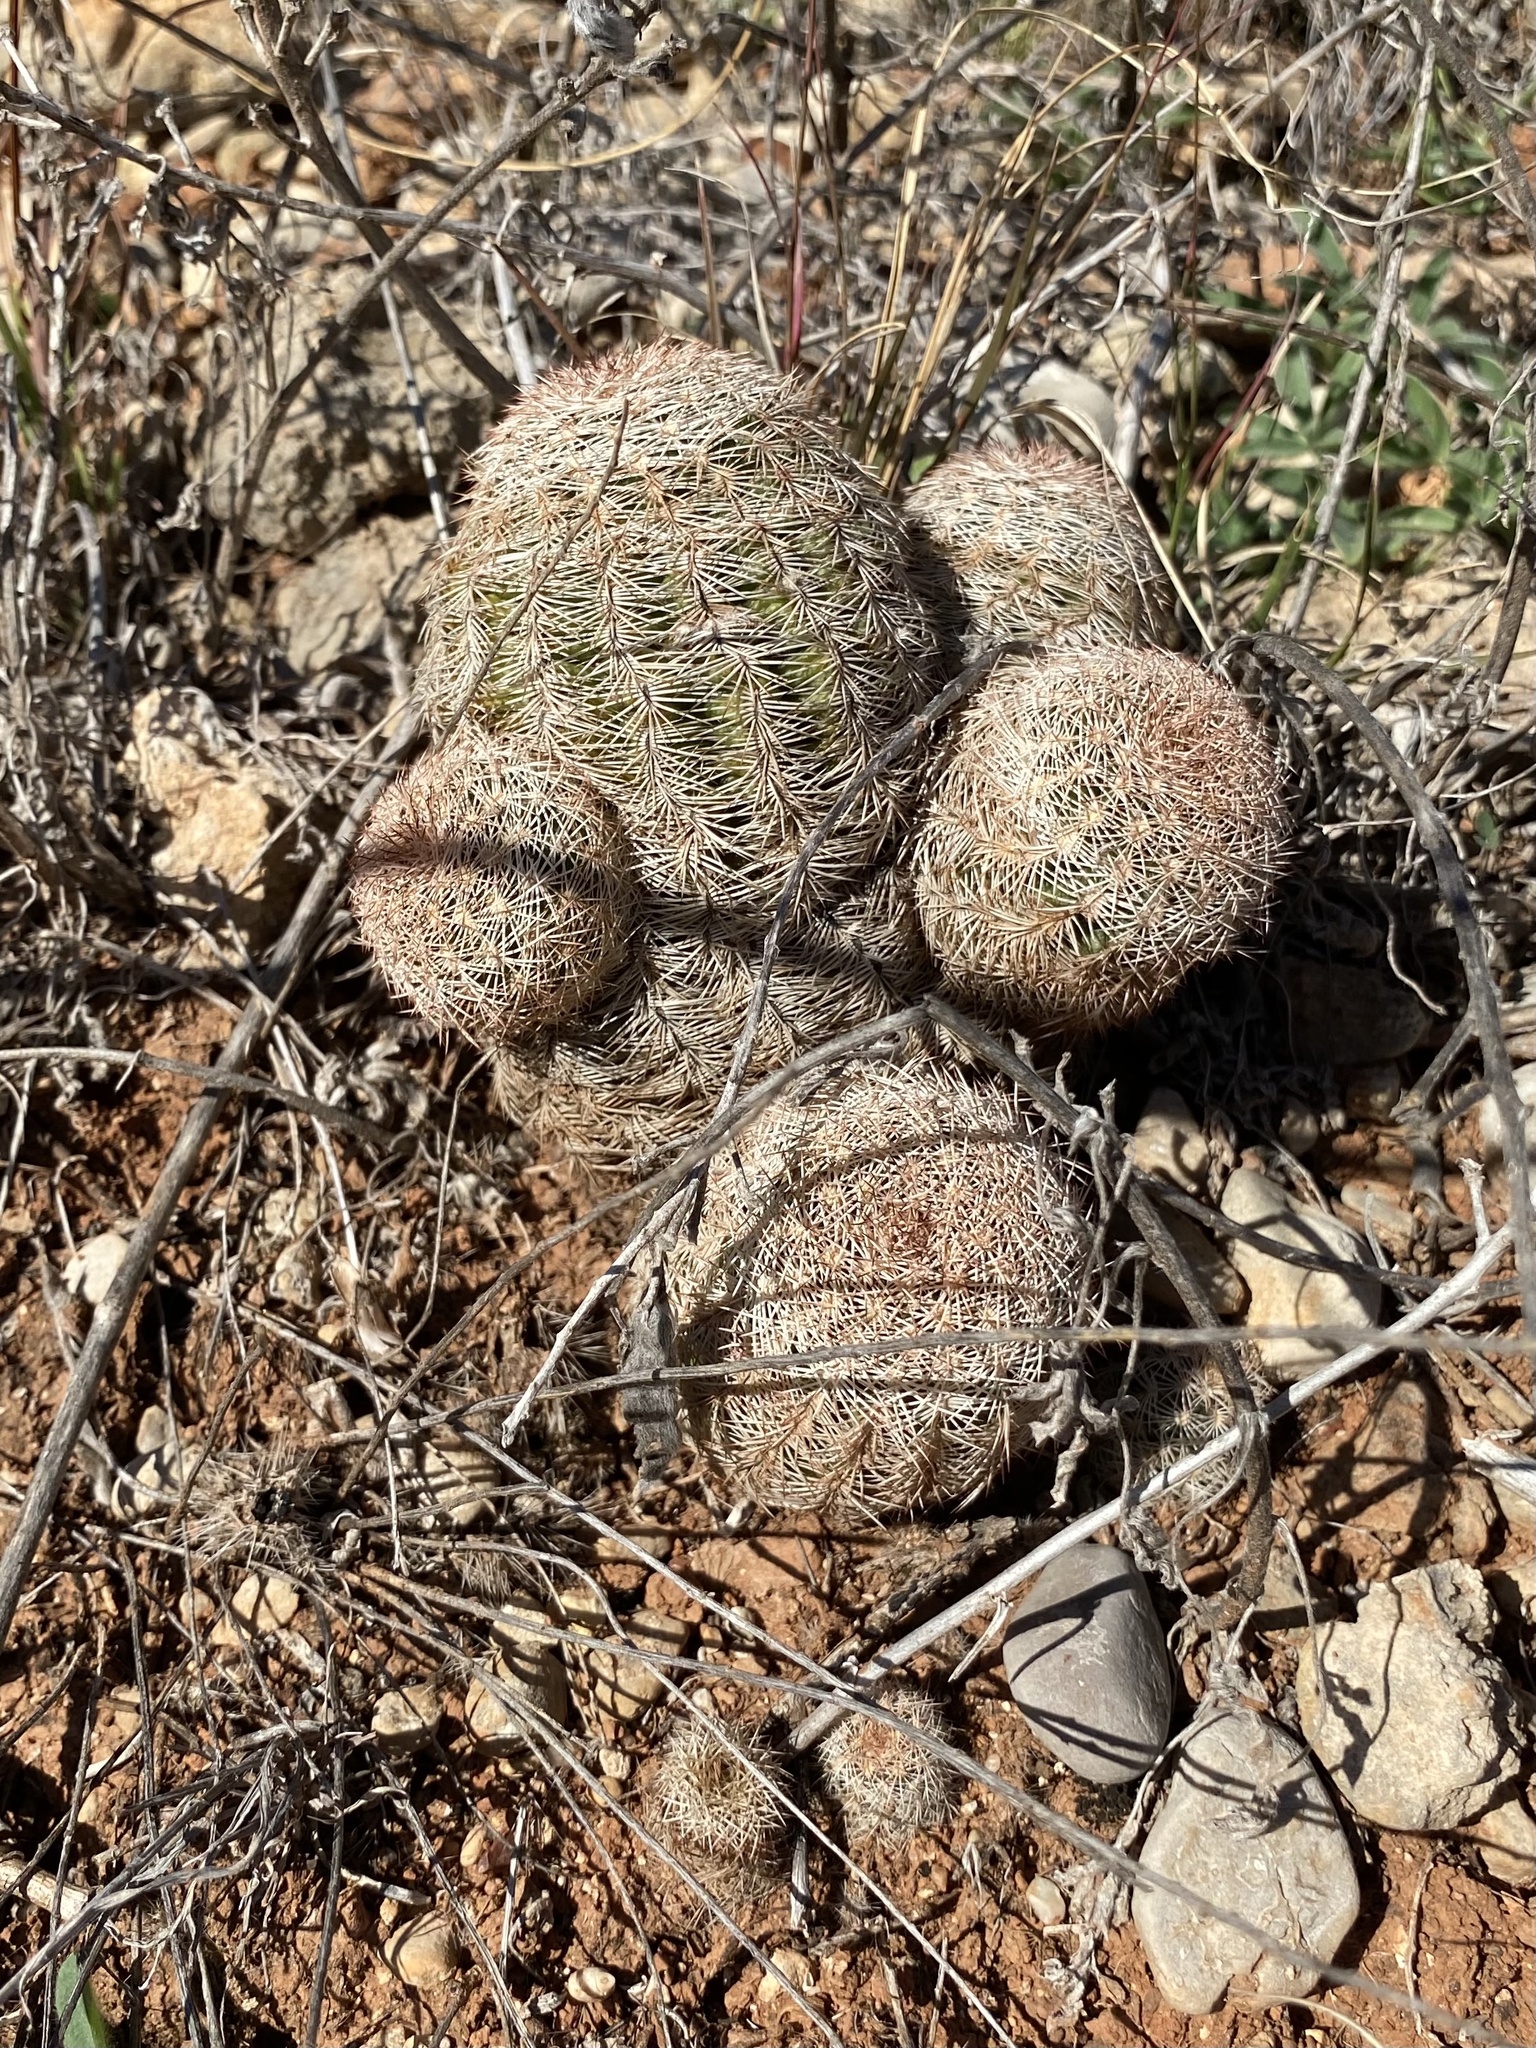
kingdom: Plantae
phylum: Tracheophyta
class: Magnoliopsida
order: Caryophyllales
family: Cactaceae
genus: Echinocereus
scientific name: Echinocereus reichenbachii
